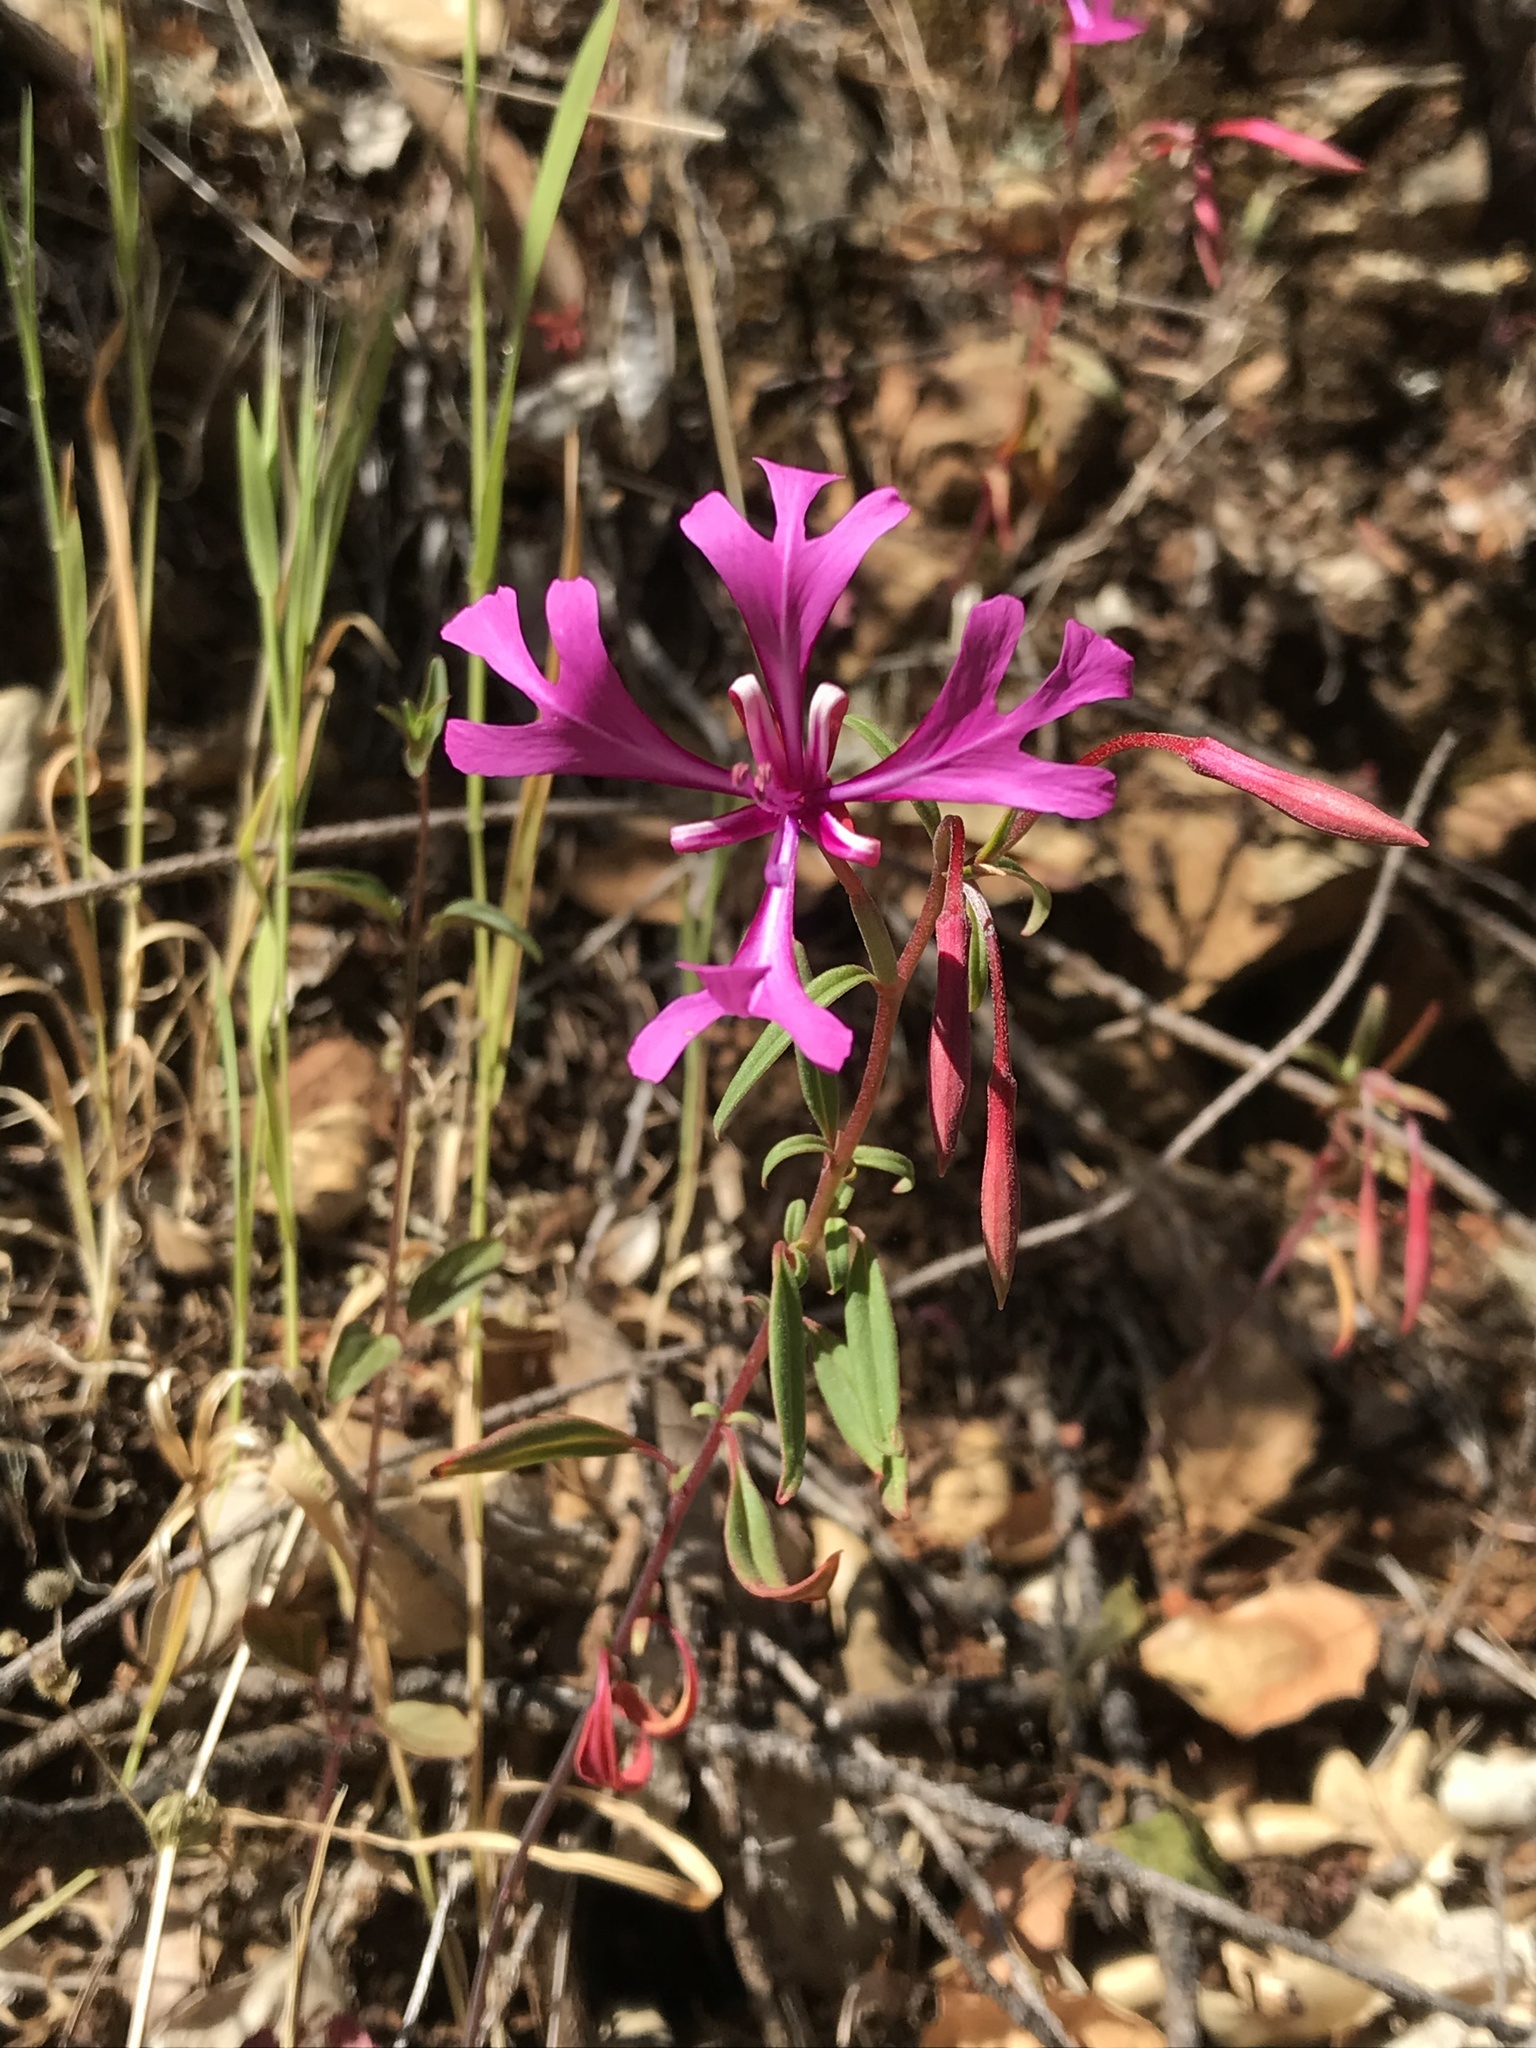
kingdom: Plantae
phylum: Tracheophyta
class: Magnoliopsida
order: Myrtales
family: Onagraceae
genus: Clarkia
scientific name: Clarkia concinna
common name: Red-ribbons
